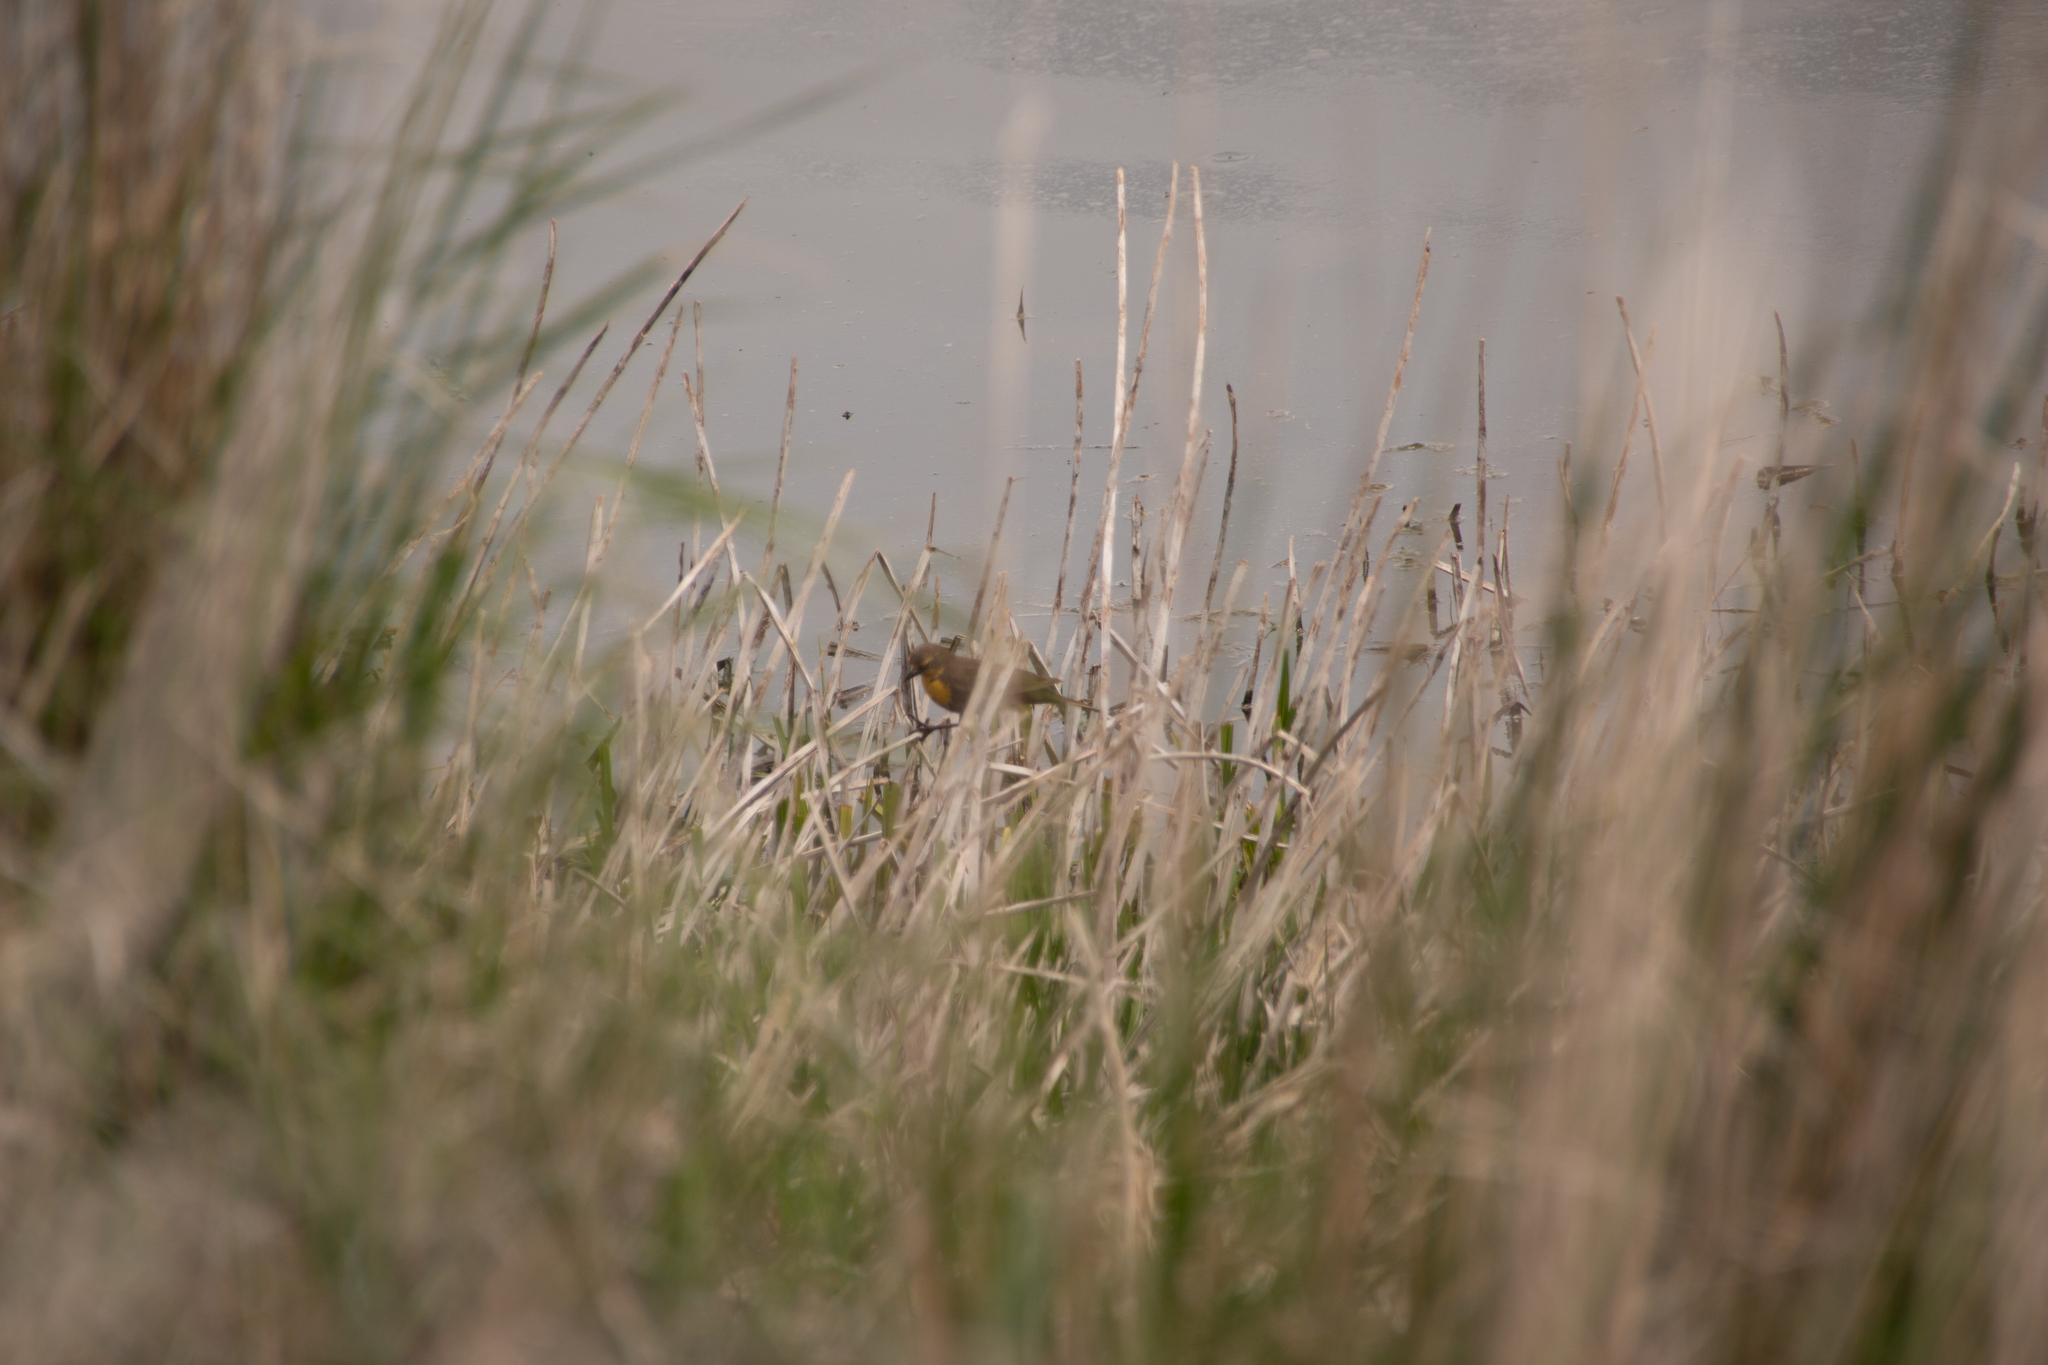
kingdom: Animalia
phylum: Chordata
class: Aves
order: Passeriformes
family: Icteridae
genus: Xanthocephalus
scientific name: Xanthocephalus xanthocephalus
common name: Yellow-headed blackbird
